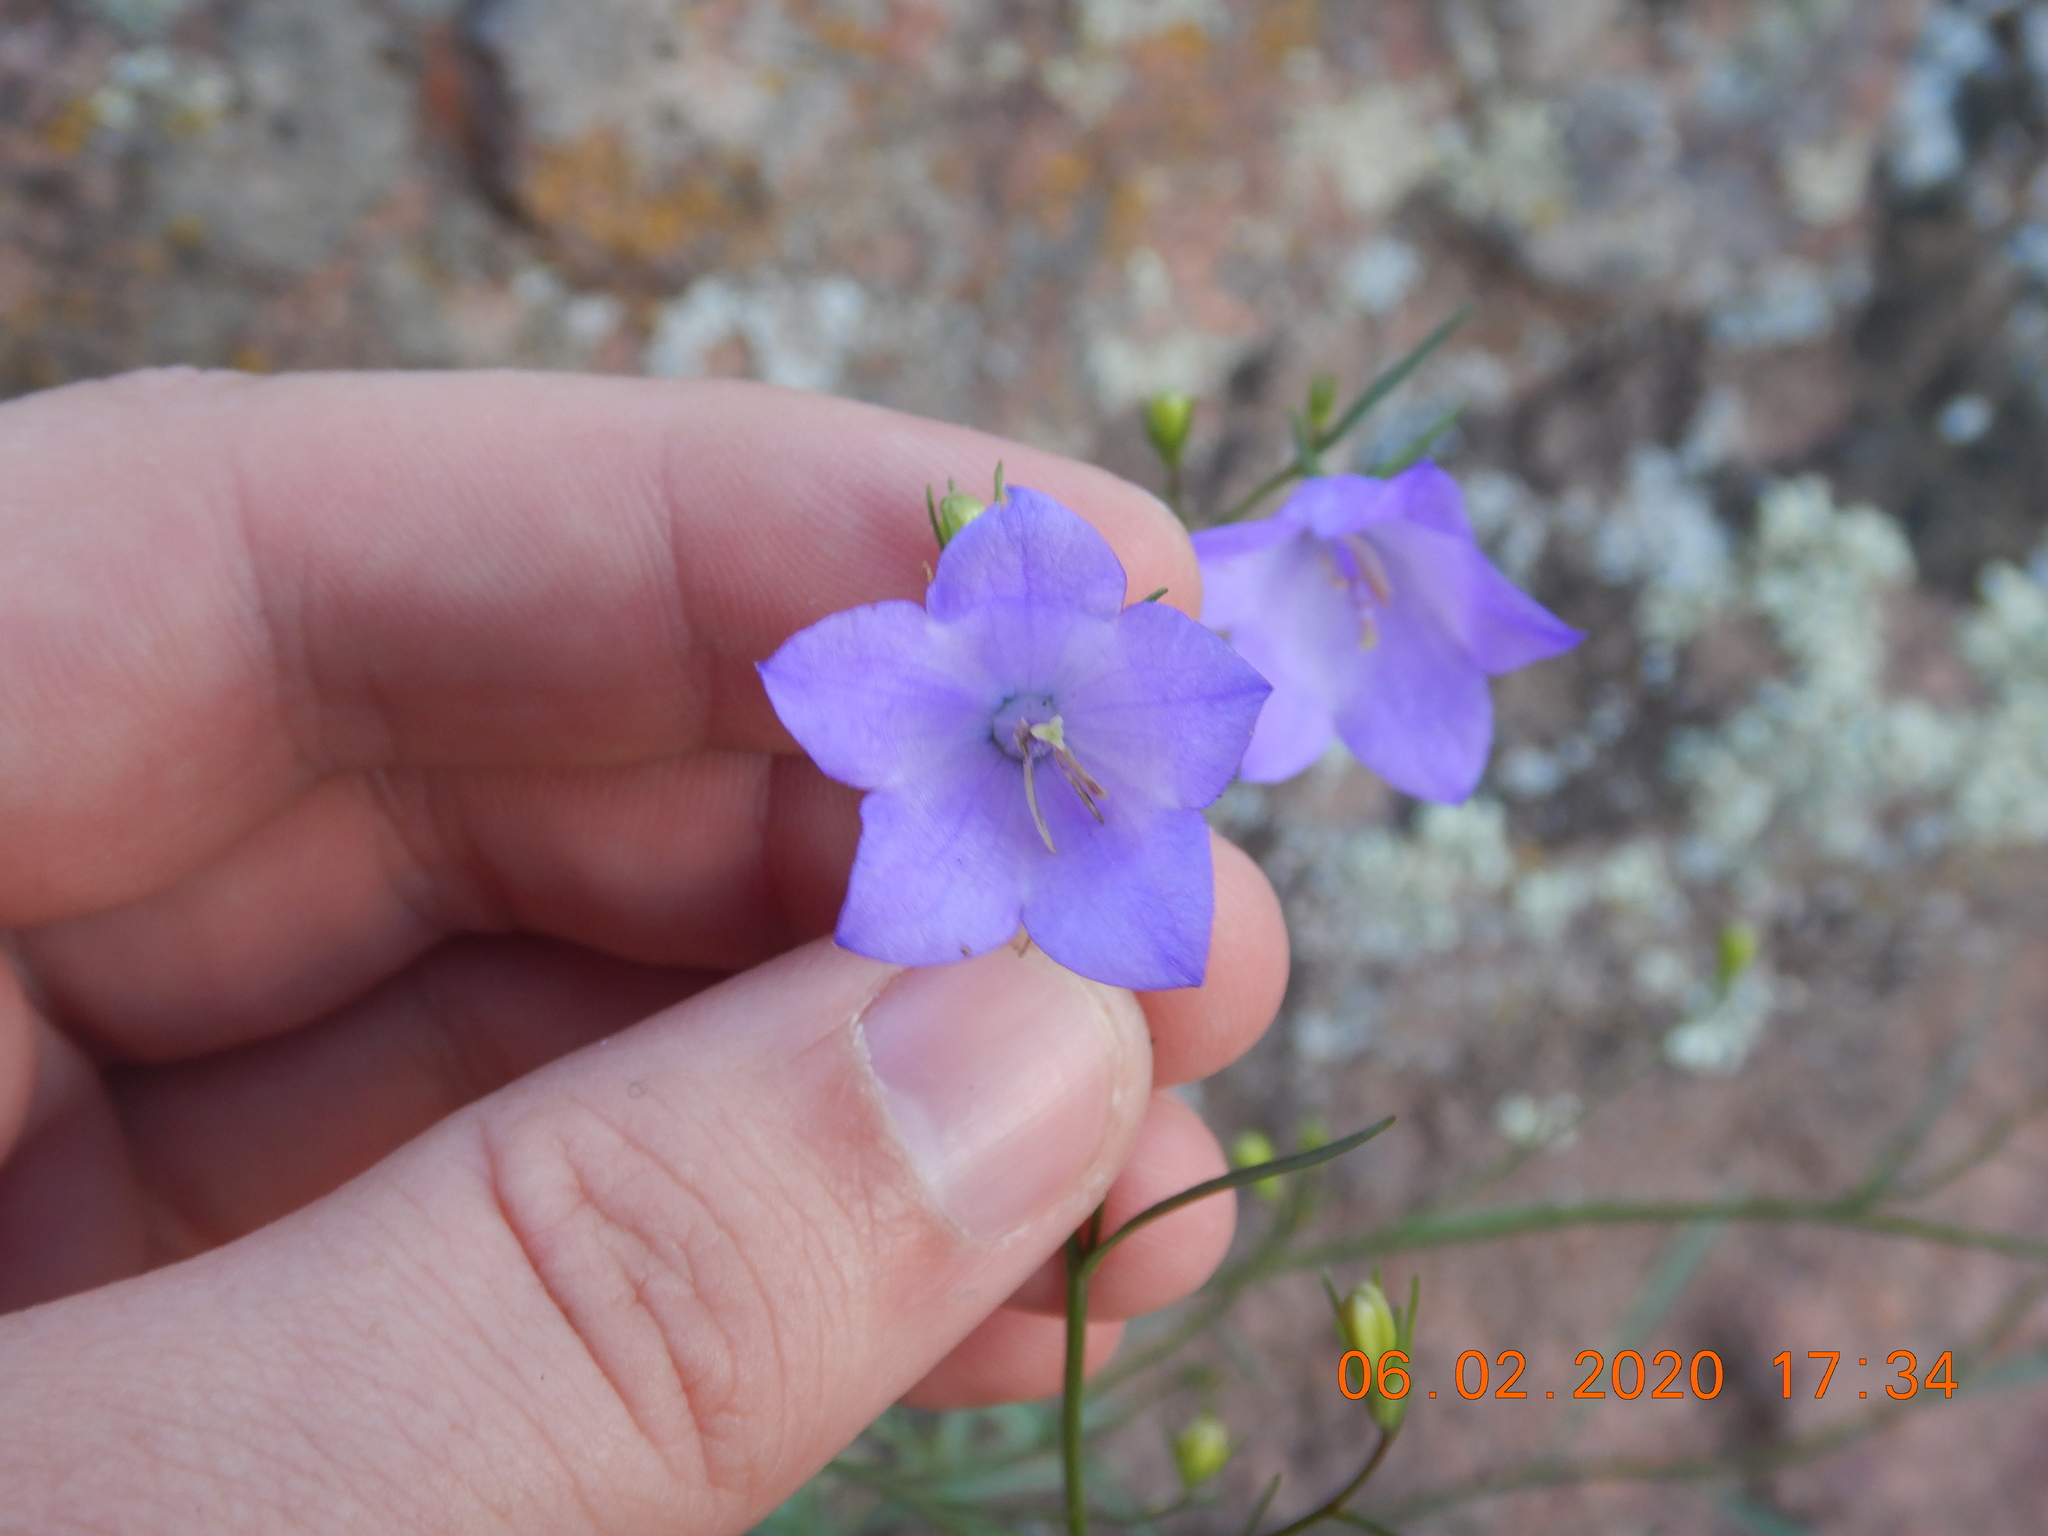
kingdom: Plantae
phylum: Tracheophyta
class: Magnoliopsida
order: Asterales
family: Campanulaceae
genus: Campanula
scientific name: Campanula petiolata
